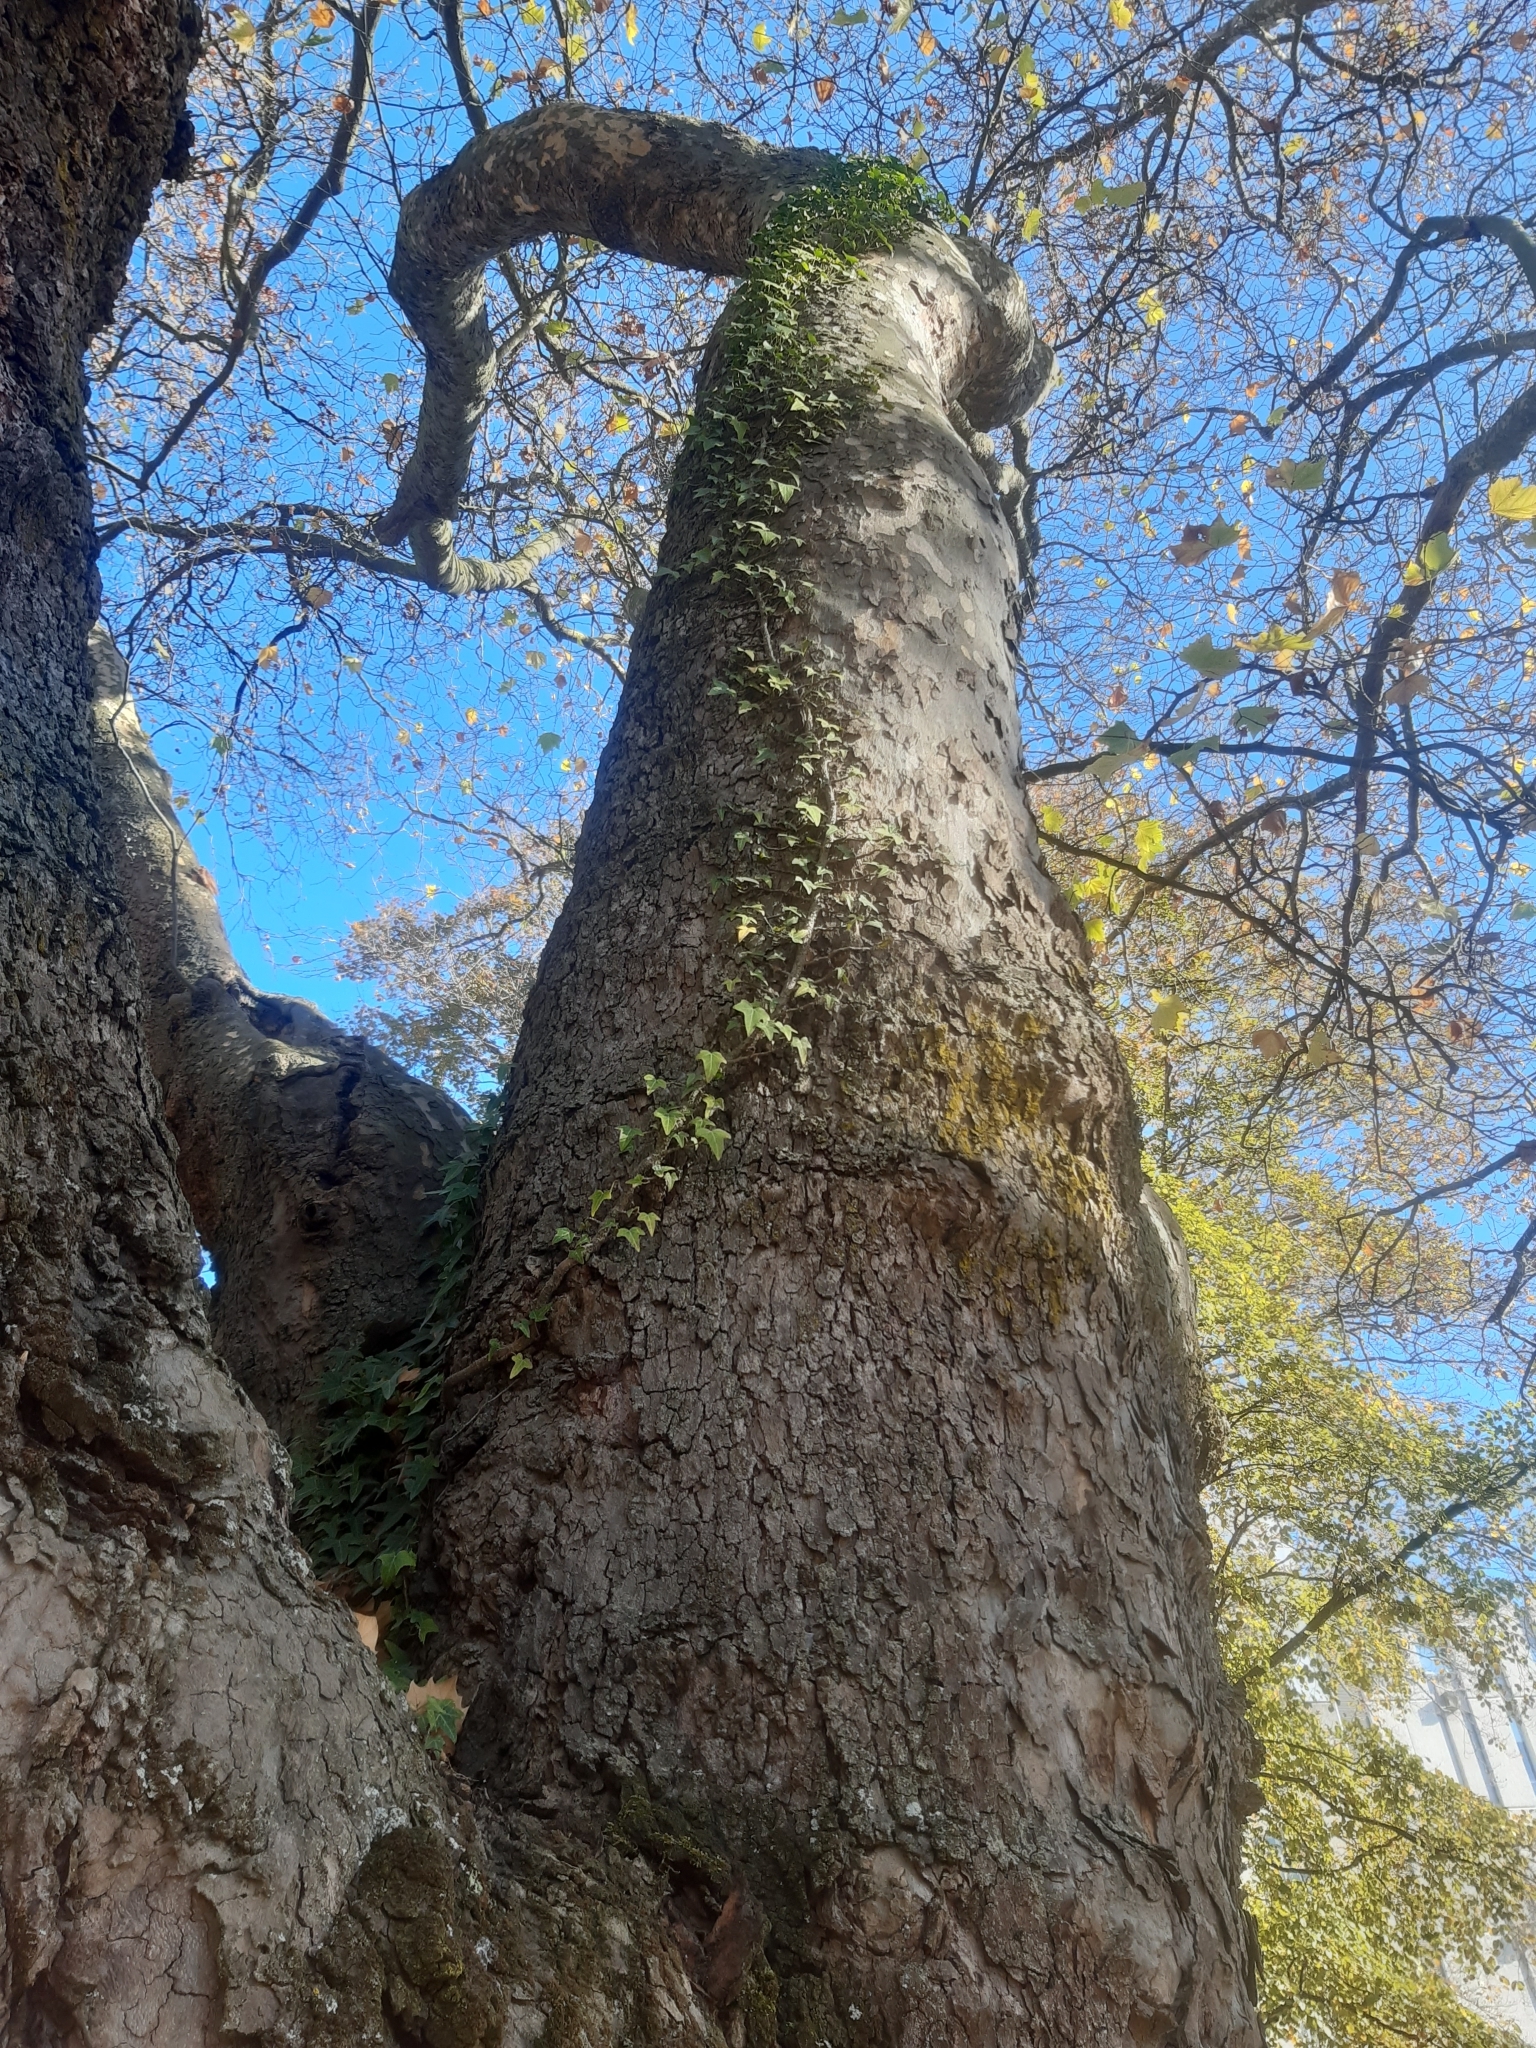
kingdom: Plantae
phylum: Tracheophyta
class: Magnoliopsida
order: Apiales
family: Araliaceae
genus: Hedera
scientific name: Hedera helix
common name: Ivy
